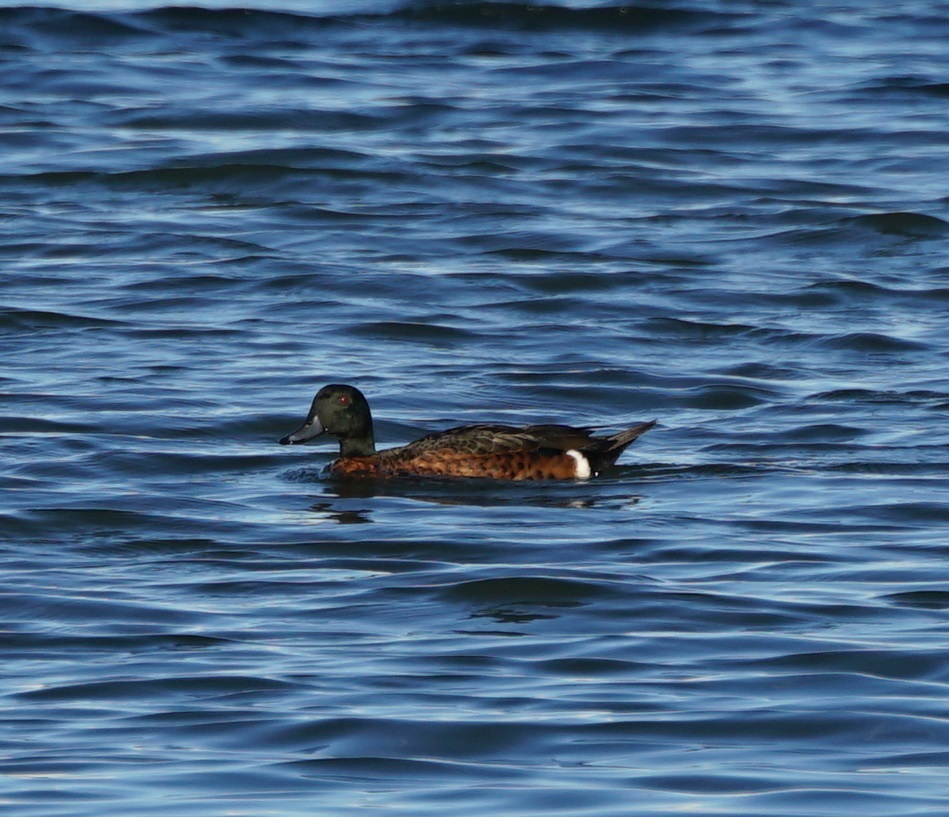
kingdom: Animalia
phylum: Chordata
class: Aves
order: Anseriformes
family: Anatidae
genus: Anas
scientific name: Anas castanea
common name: Chestnut teal
